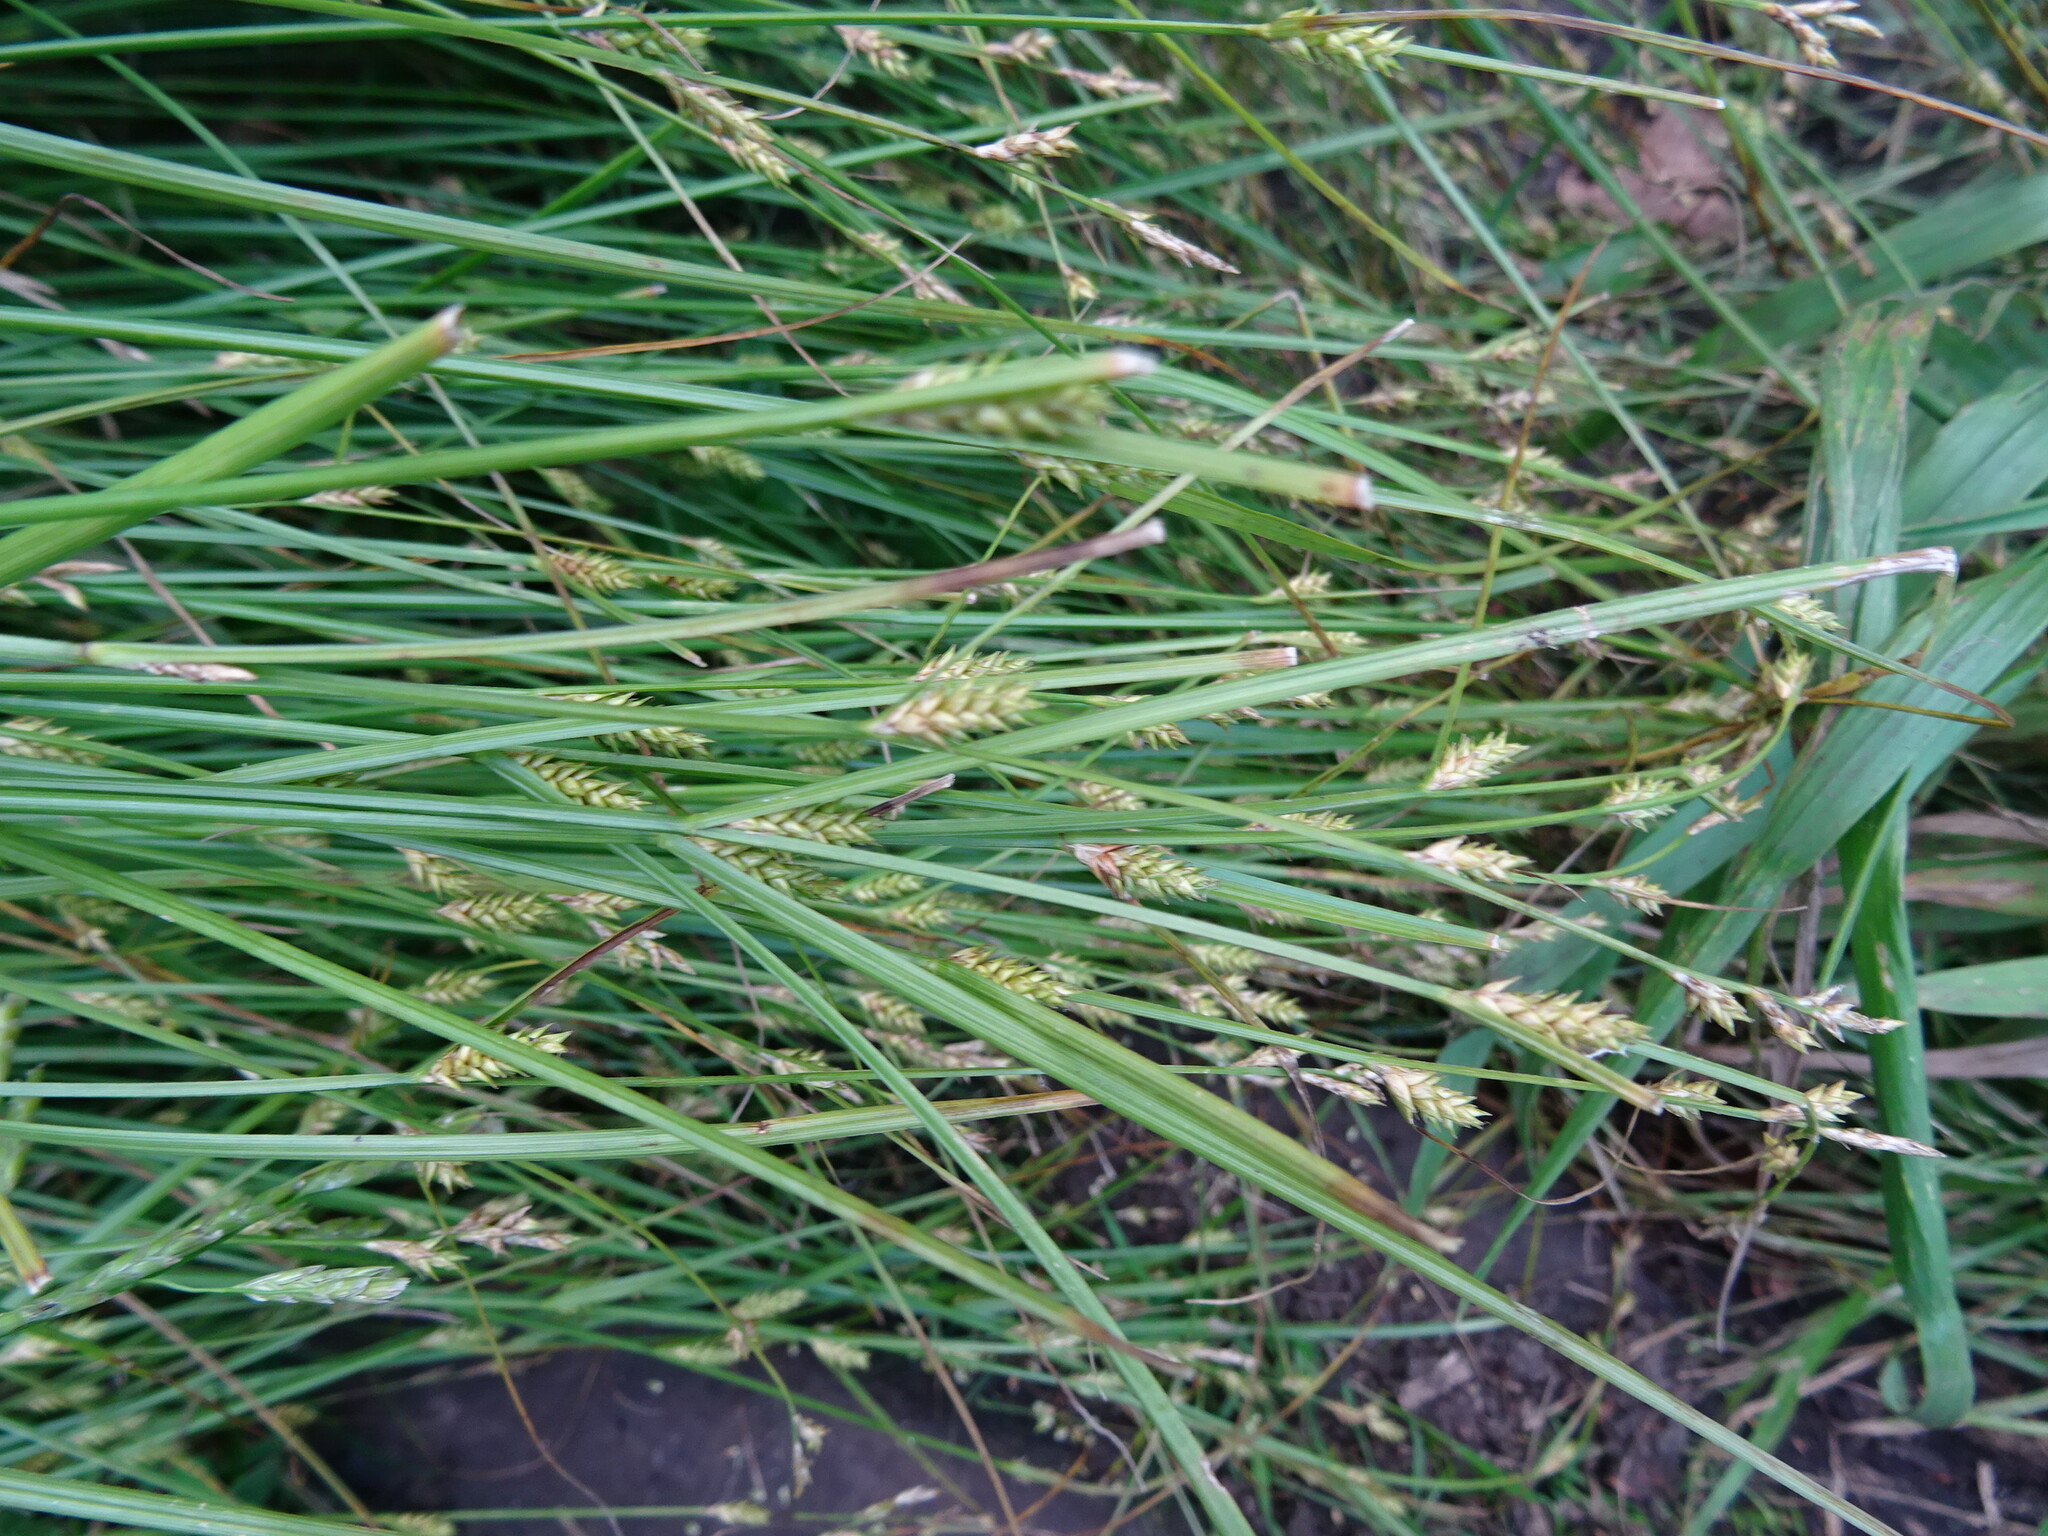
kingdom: Plantae
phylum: Tracheophyta
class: Liliopsida
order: Poales
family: Cyperaceae
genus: Carex
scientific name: Carex divulsa
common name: Grassland sedge
